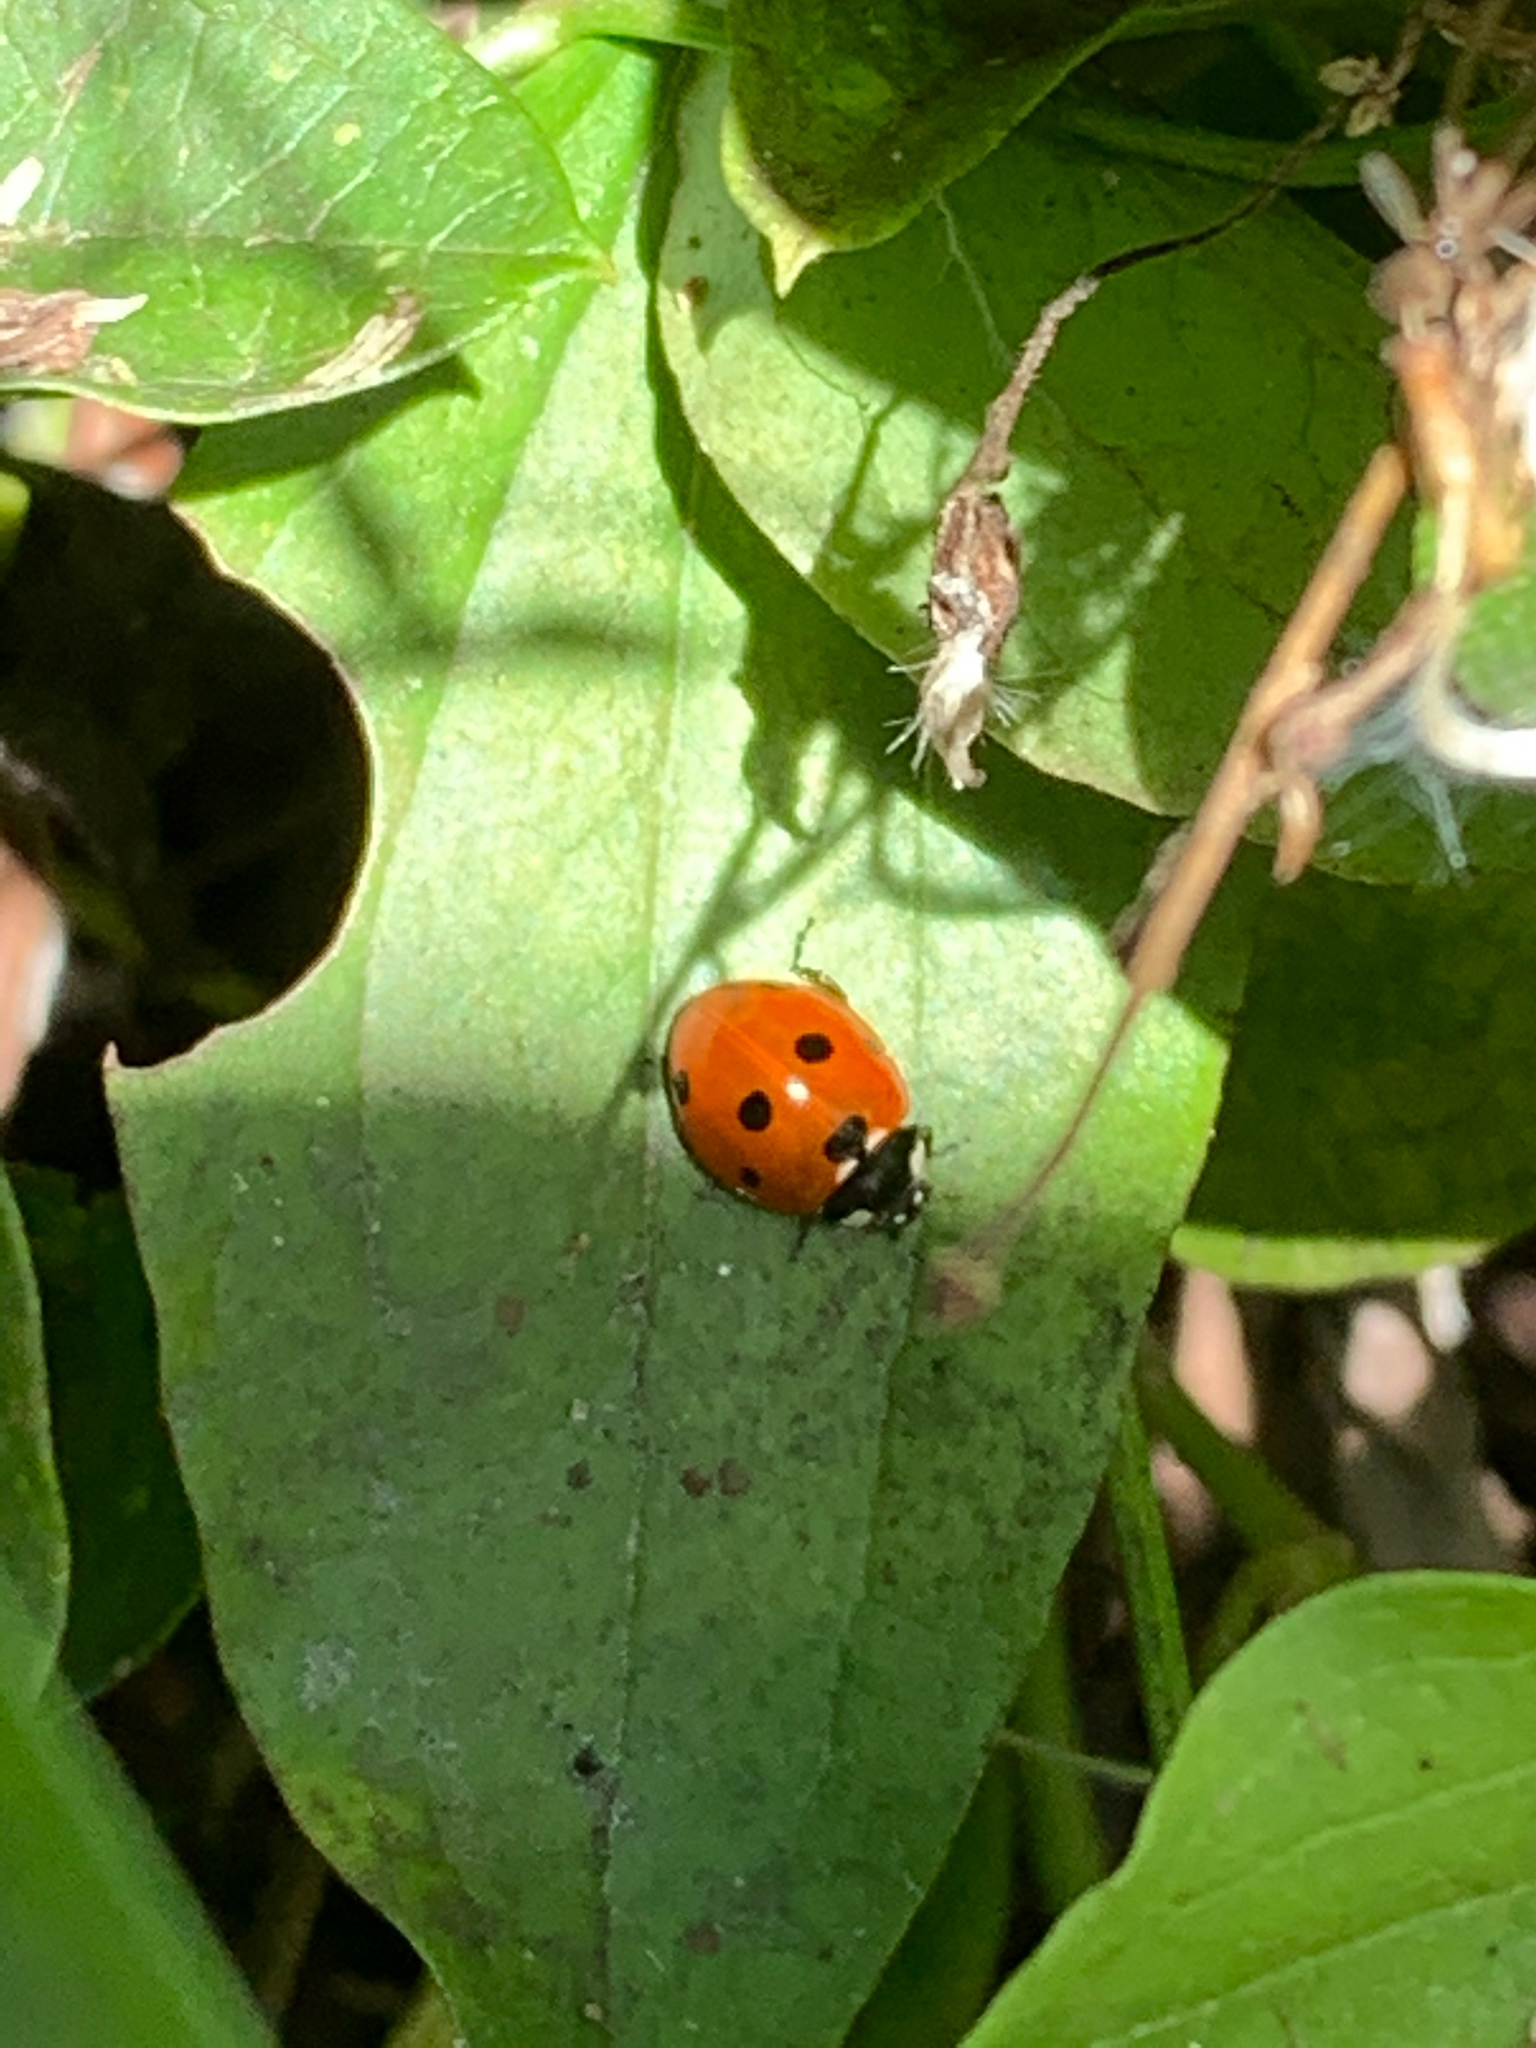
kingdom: Animalia
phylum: Arthropoda
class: Insecta
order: Coleoptera
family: Coccinellidae
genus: Coccinella
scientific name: Coccinella septempunctata
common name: Sevenspotted lady beetle
